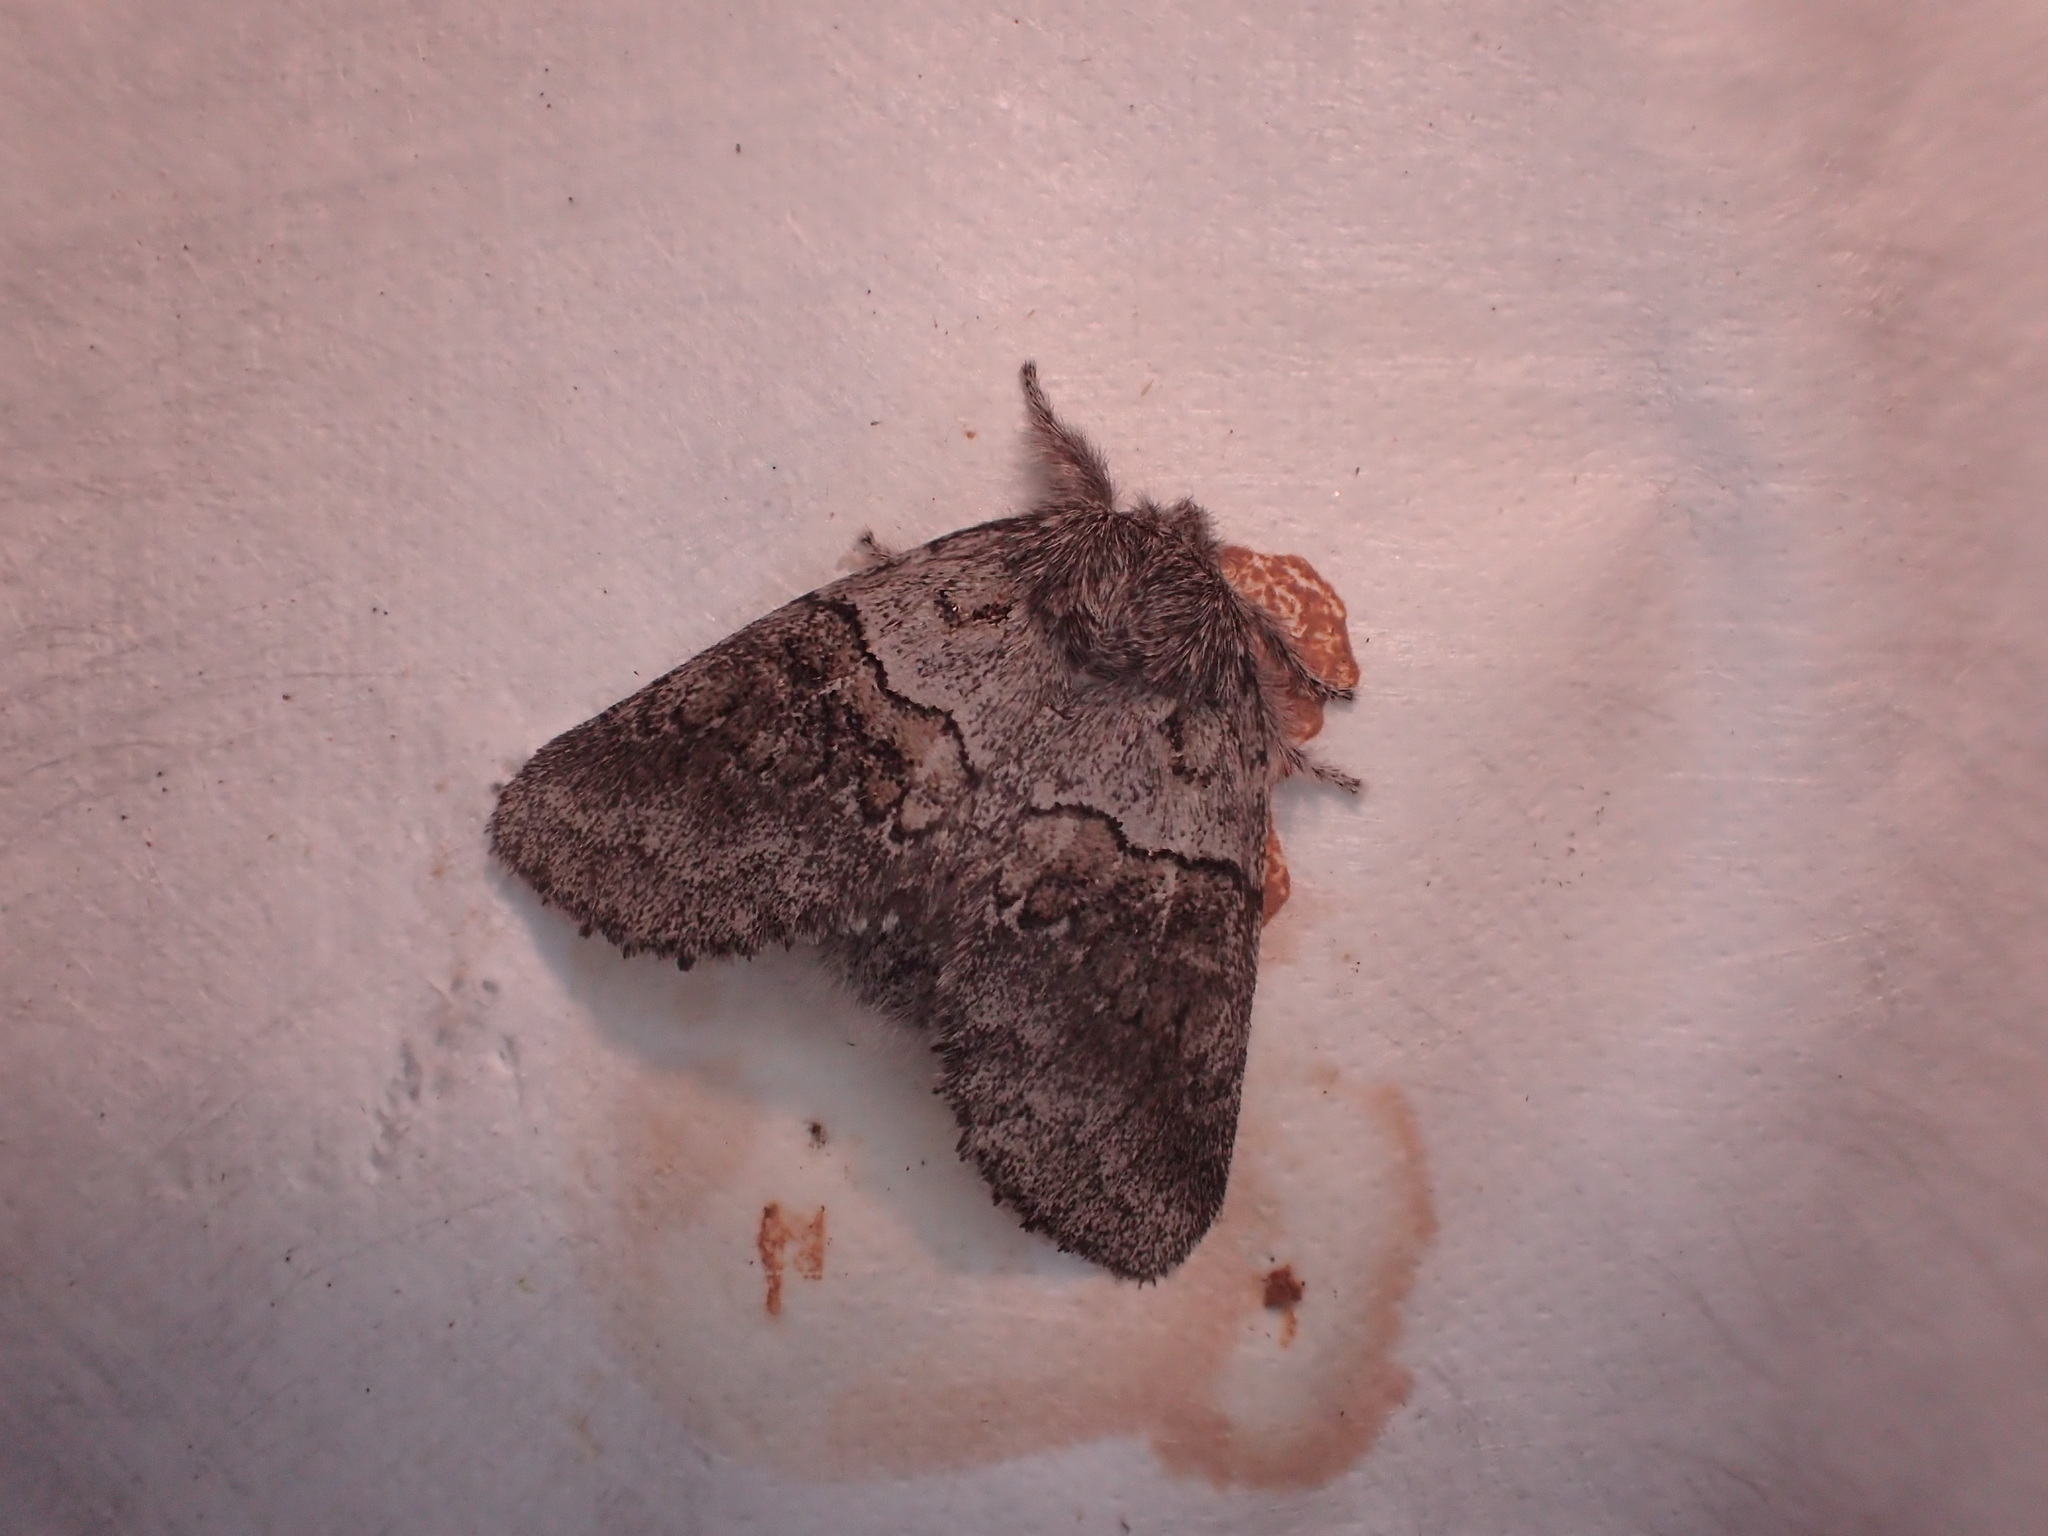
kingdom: Animalia
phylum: Arthropoda
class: Insecta
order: Lepidoptera
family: Notodontidae
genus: Gluphisia
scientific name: Gluphisia septentrionis
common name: Common gluphisia
